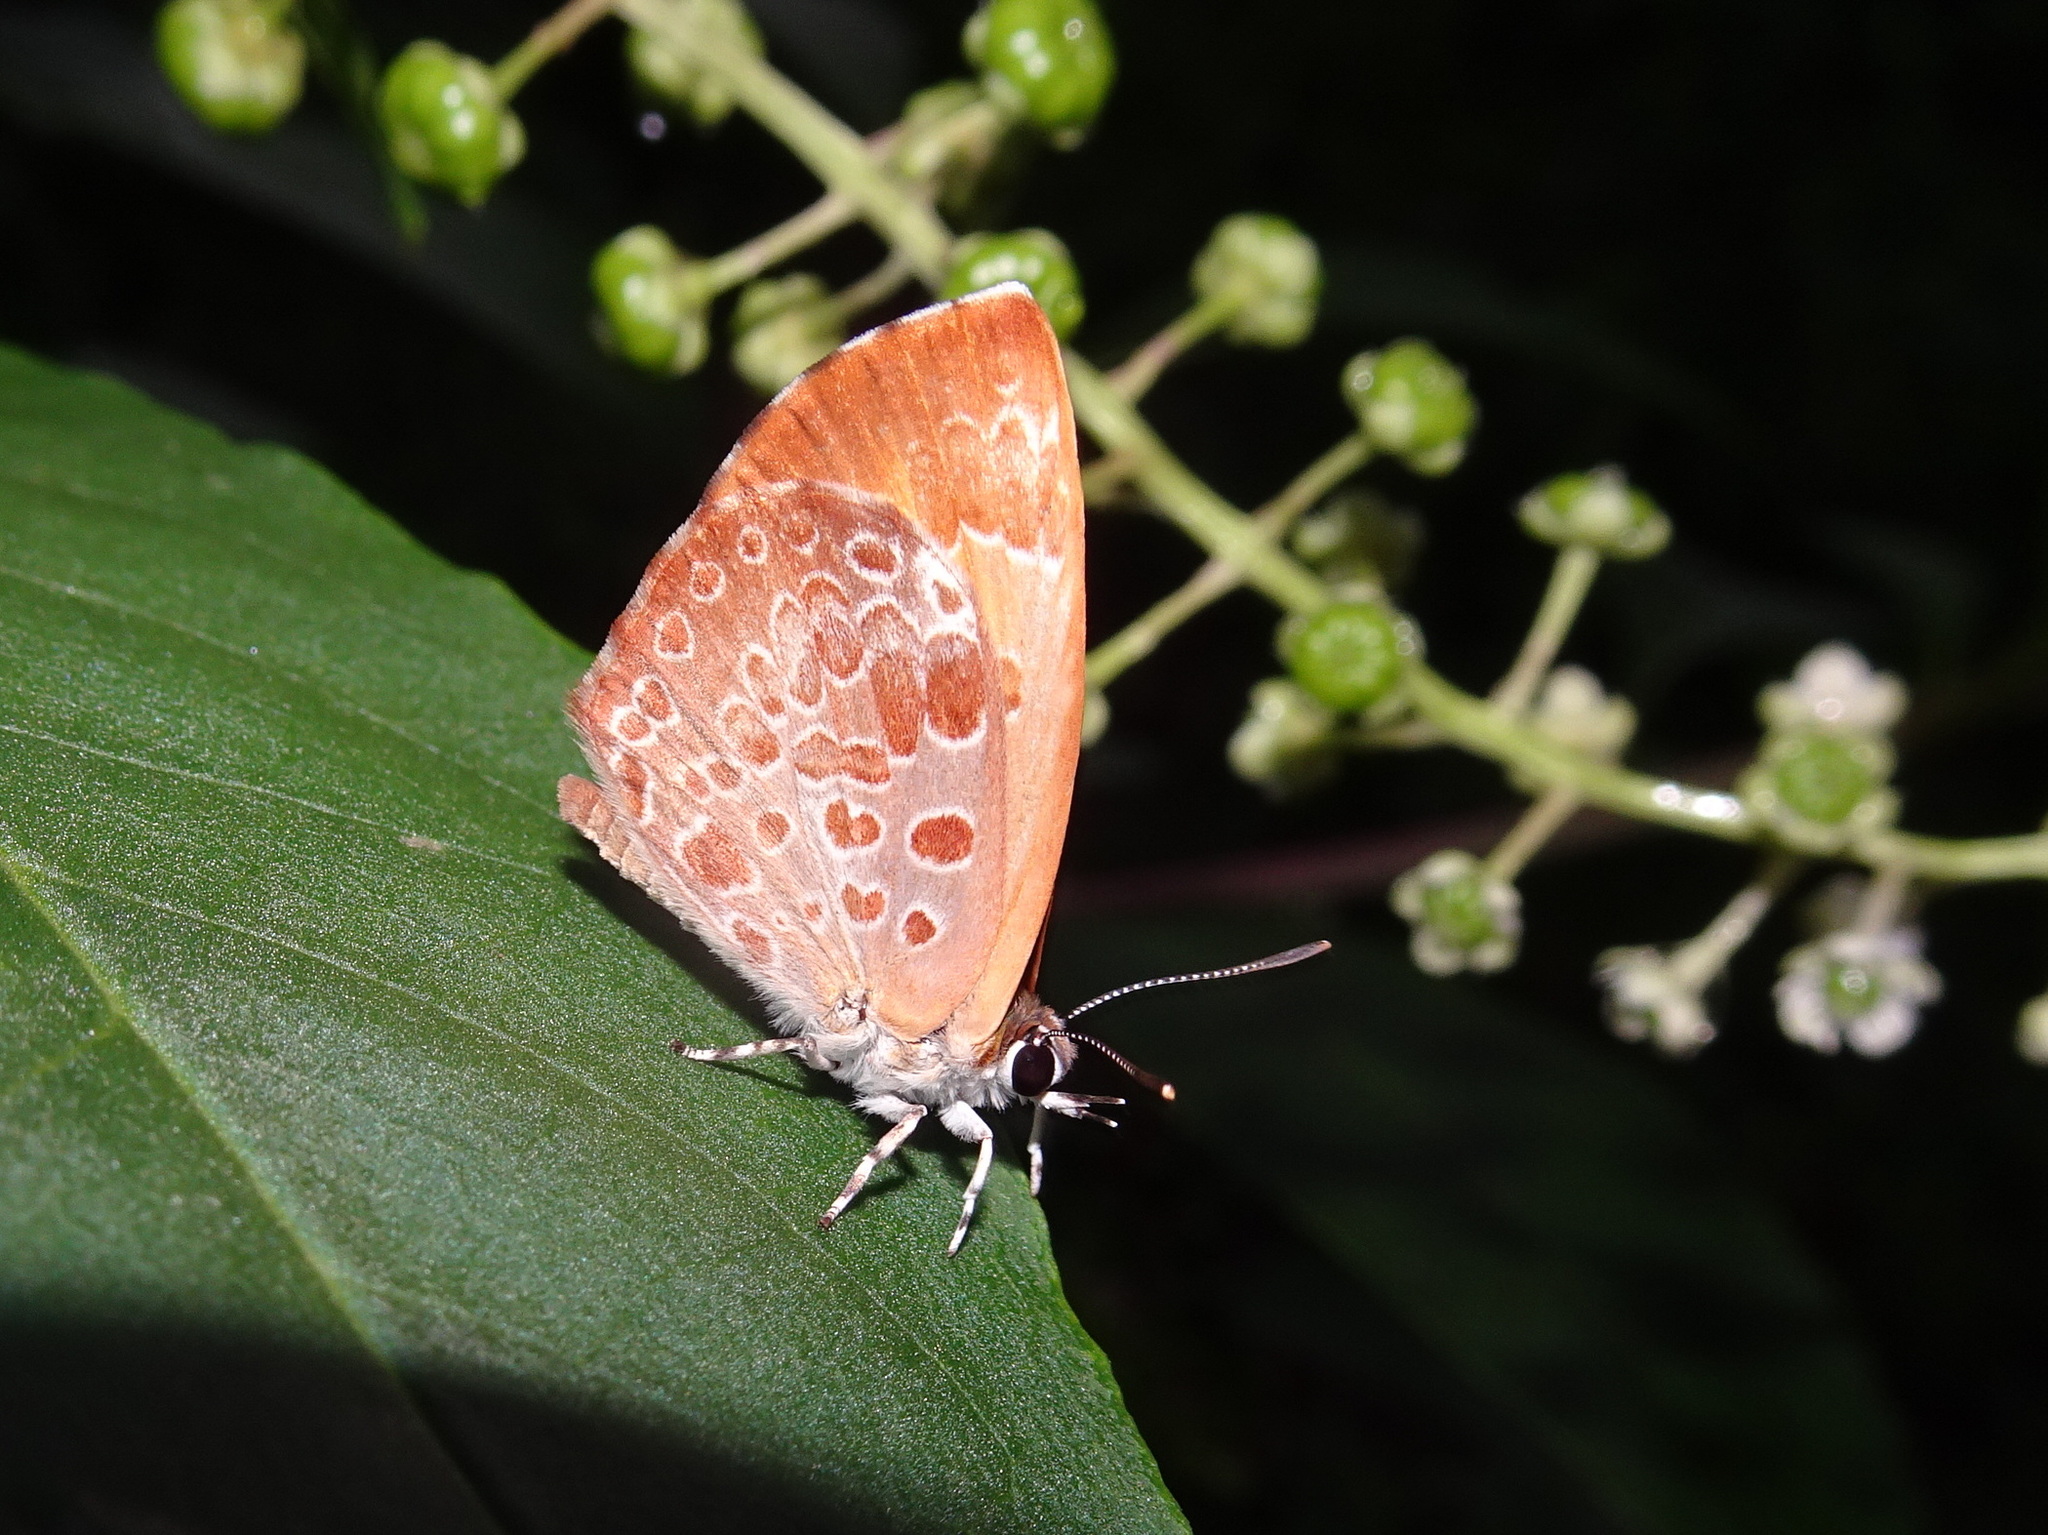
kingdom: Animalia
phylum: Arthropoda
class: Insecta
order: Lepidoptera
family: Lycaenidae
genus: Feniseca
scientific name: Feniseca tarquinius
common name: Harvester
